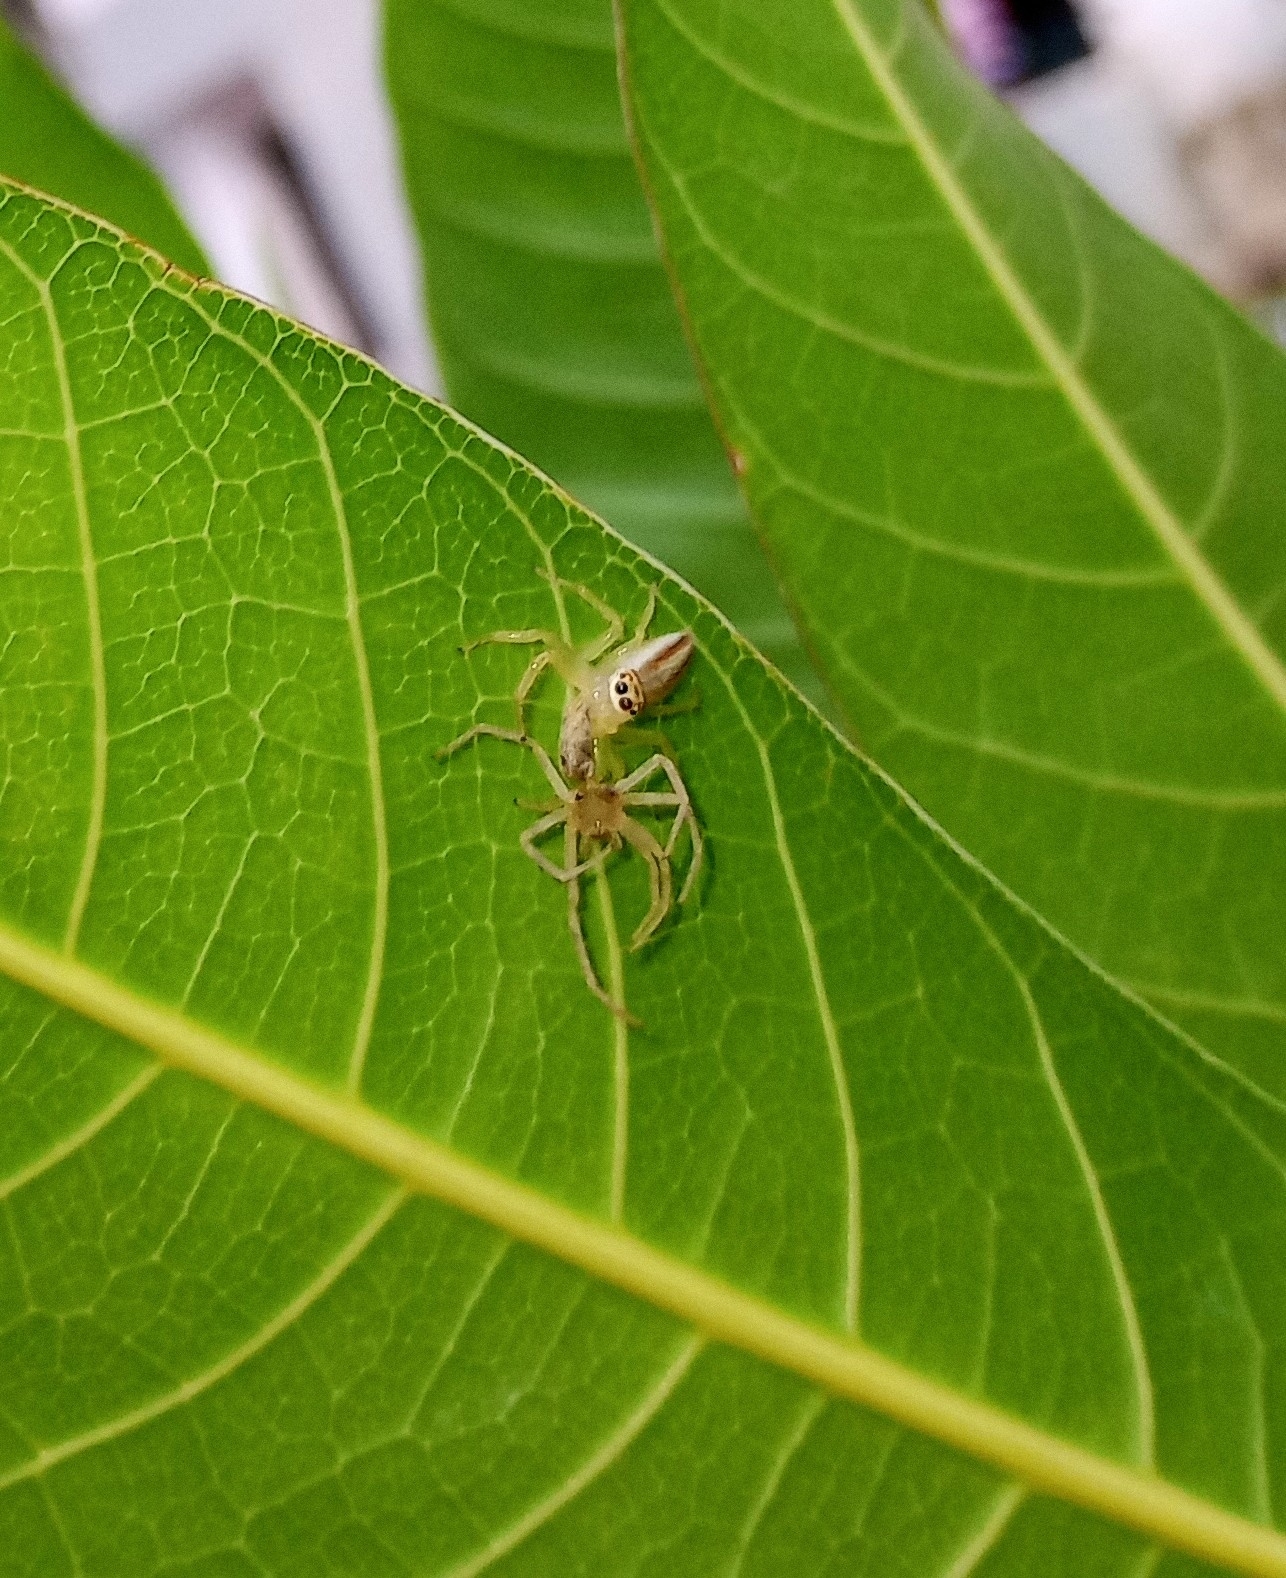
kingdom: Animalia
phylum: Arthropoda
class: Arachnida
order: Araneae
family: Salticidae
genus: Telamonia
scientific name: Telamonia dimidiata
